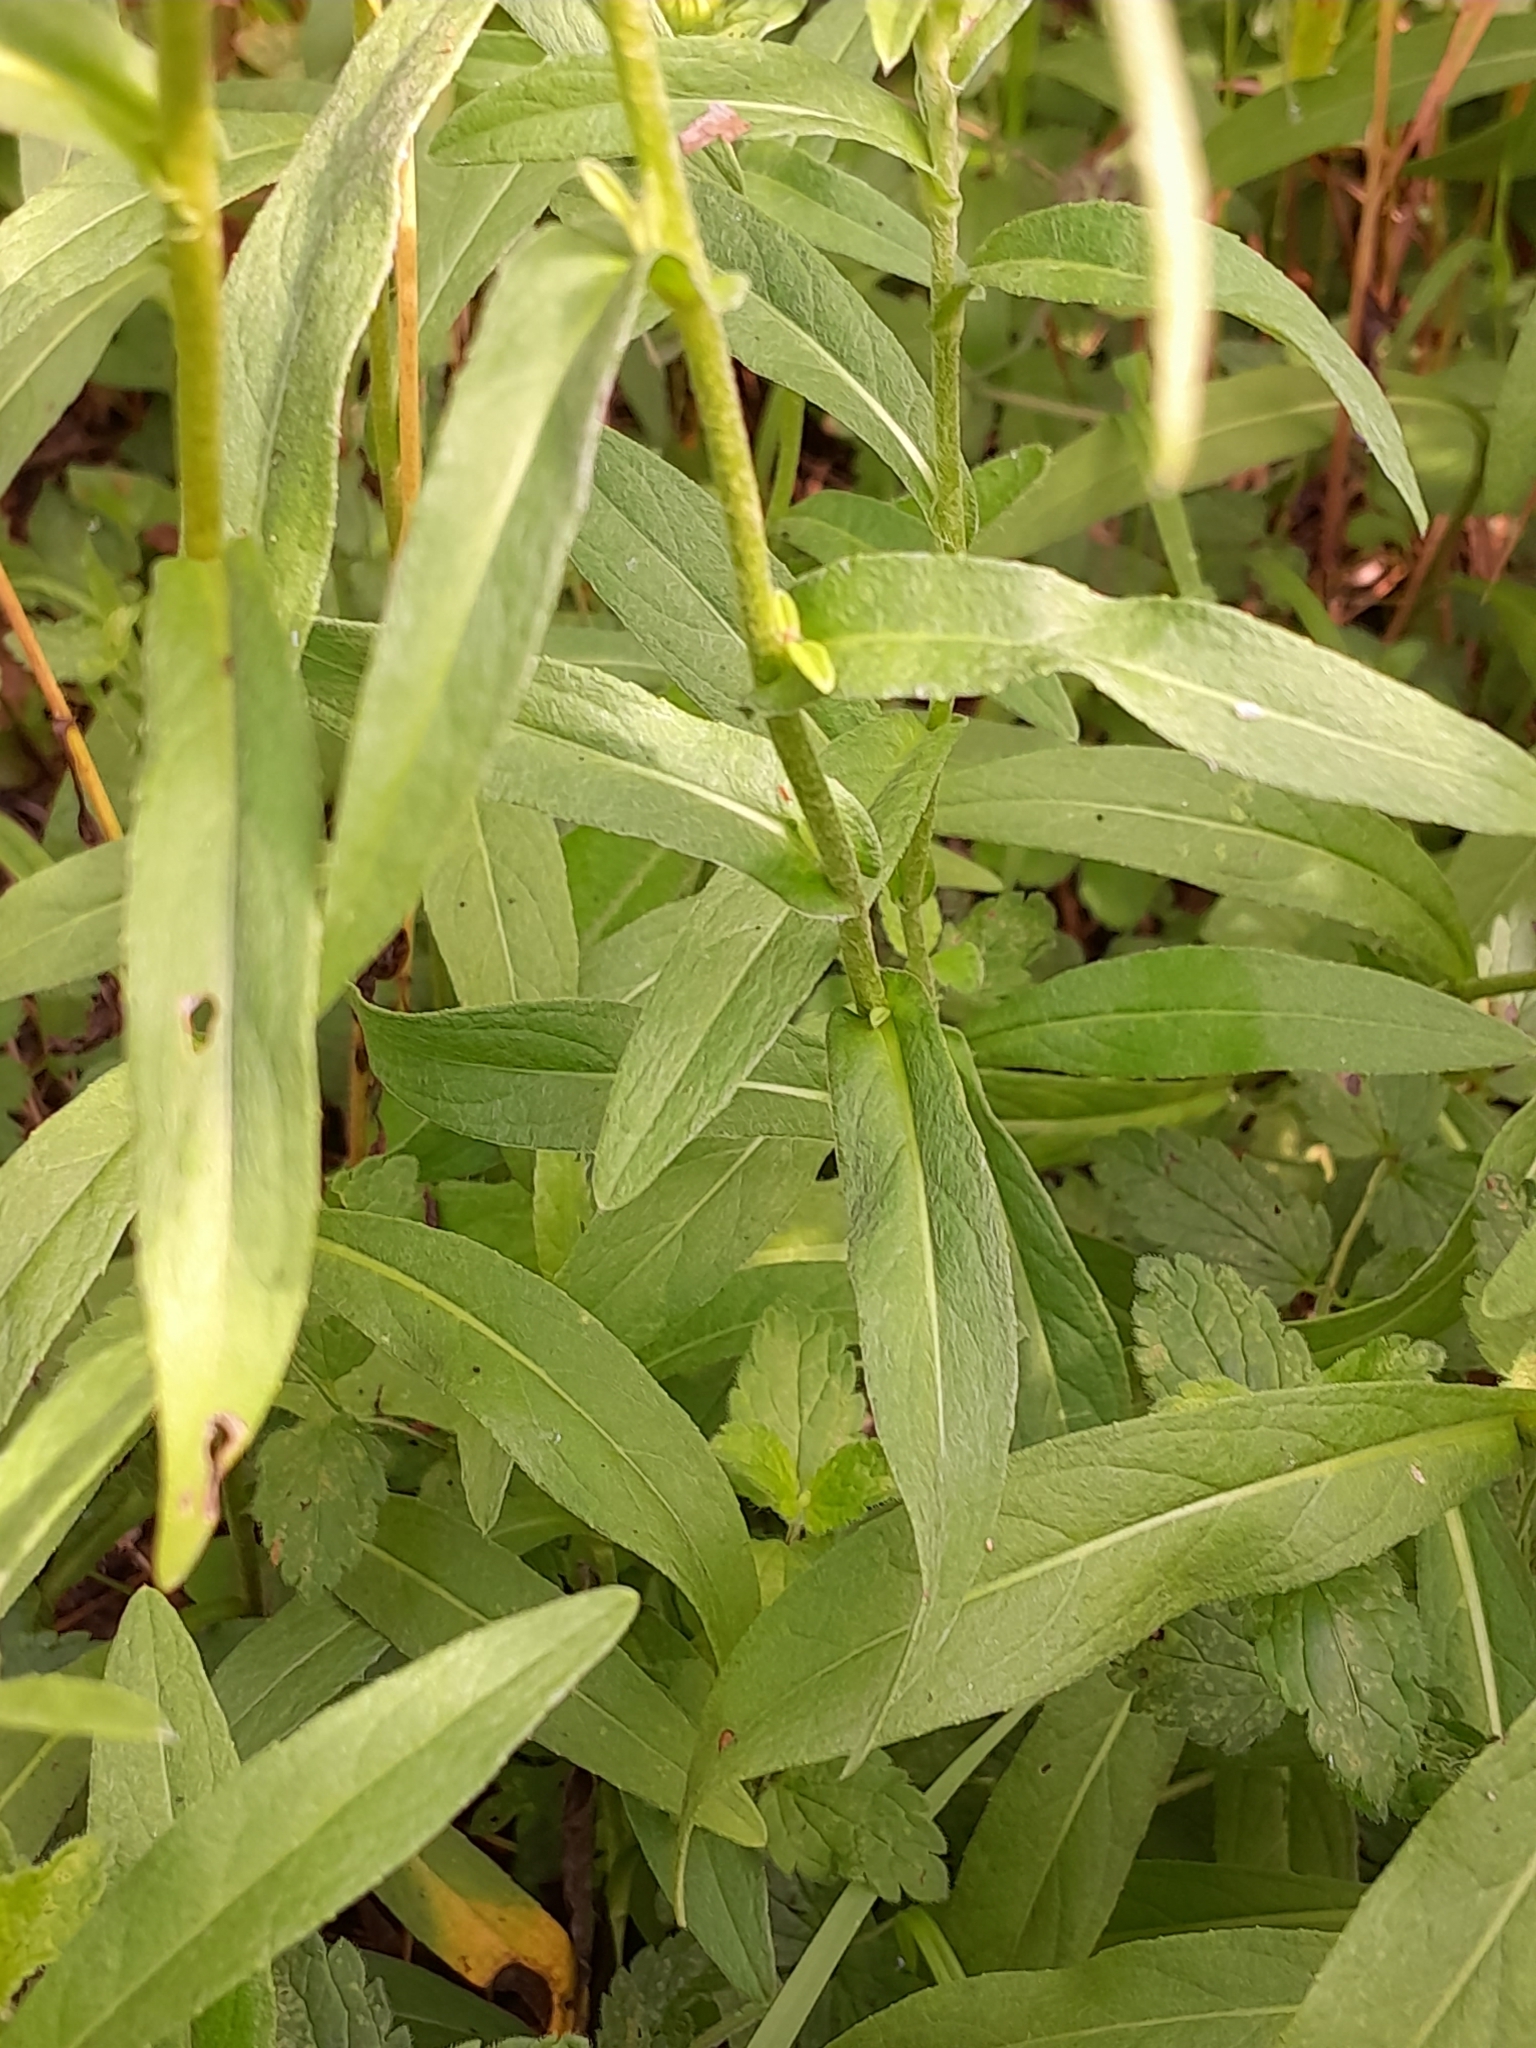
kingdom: Plantae
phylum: Tracheophyta
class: Magnoliopsida
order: Asterales
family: Asteraceae
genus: Pentanema
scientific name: Pentanema salicinum
